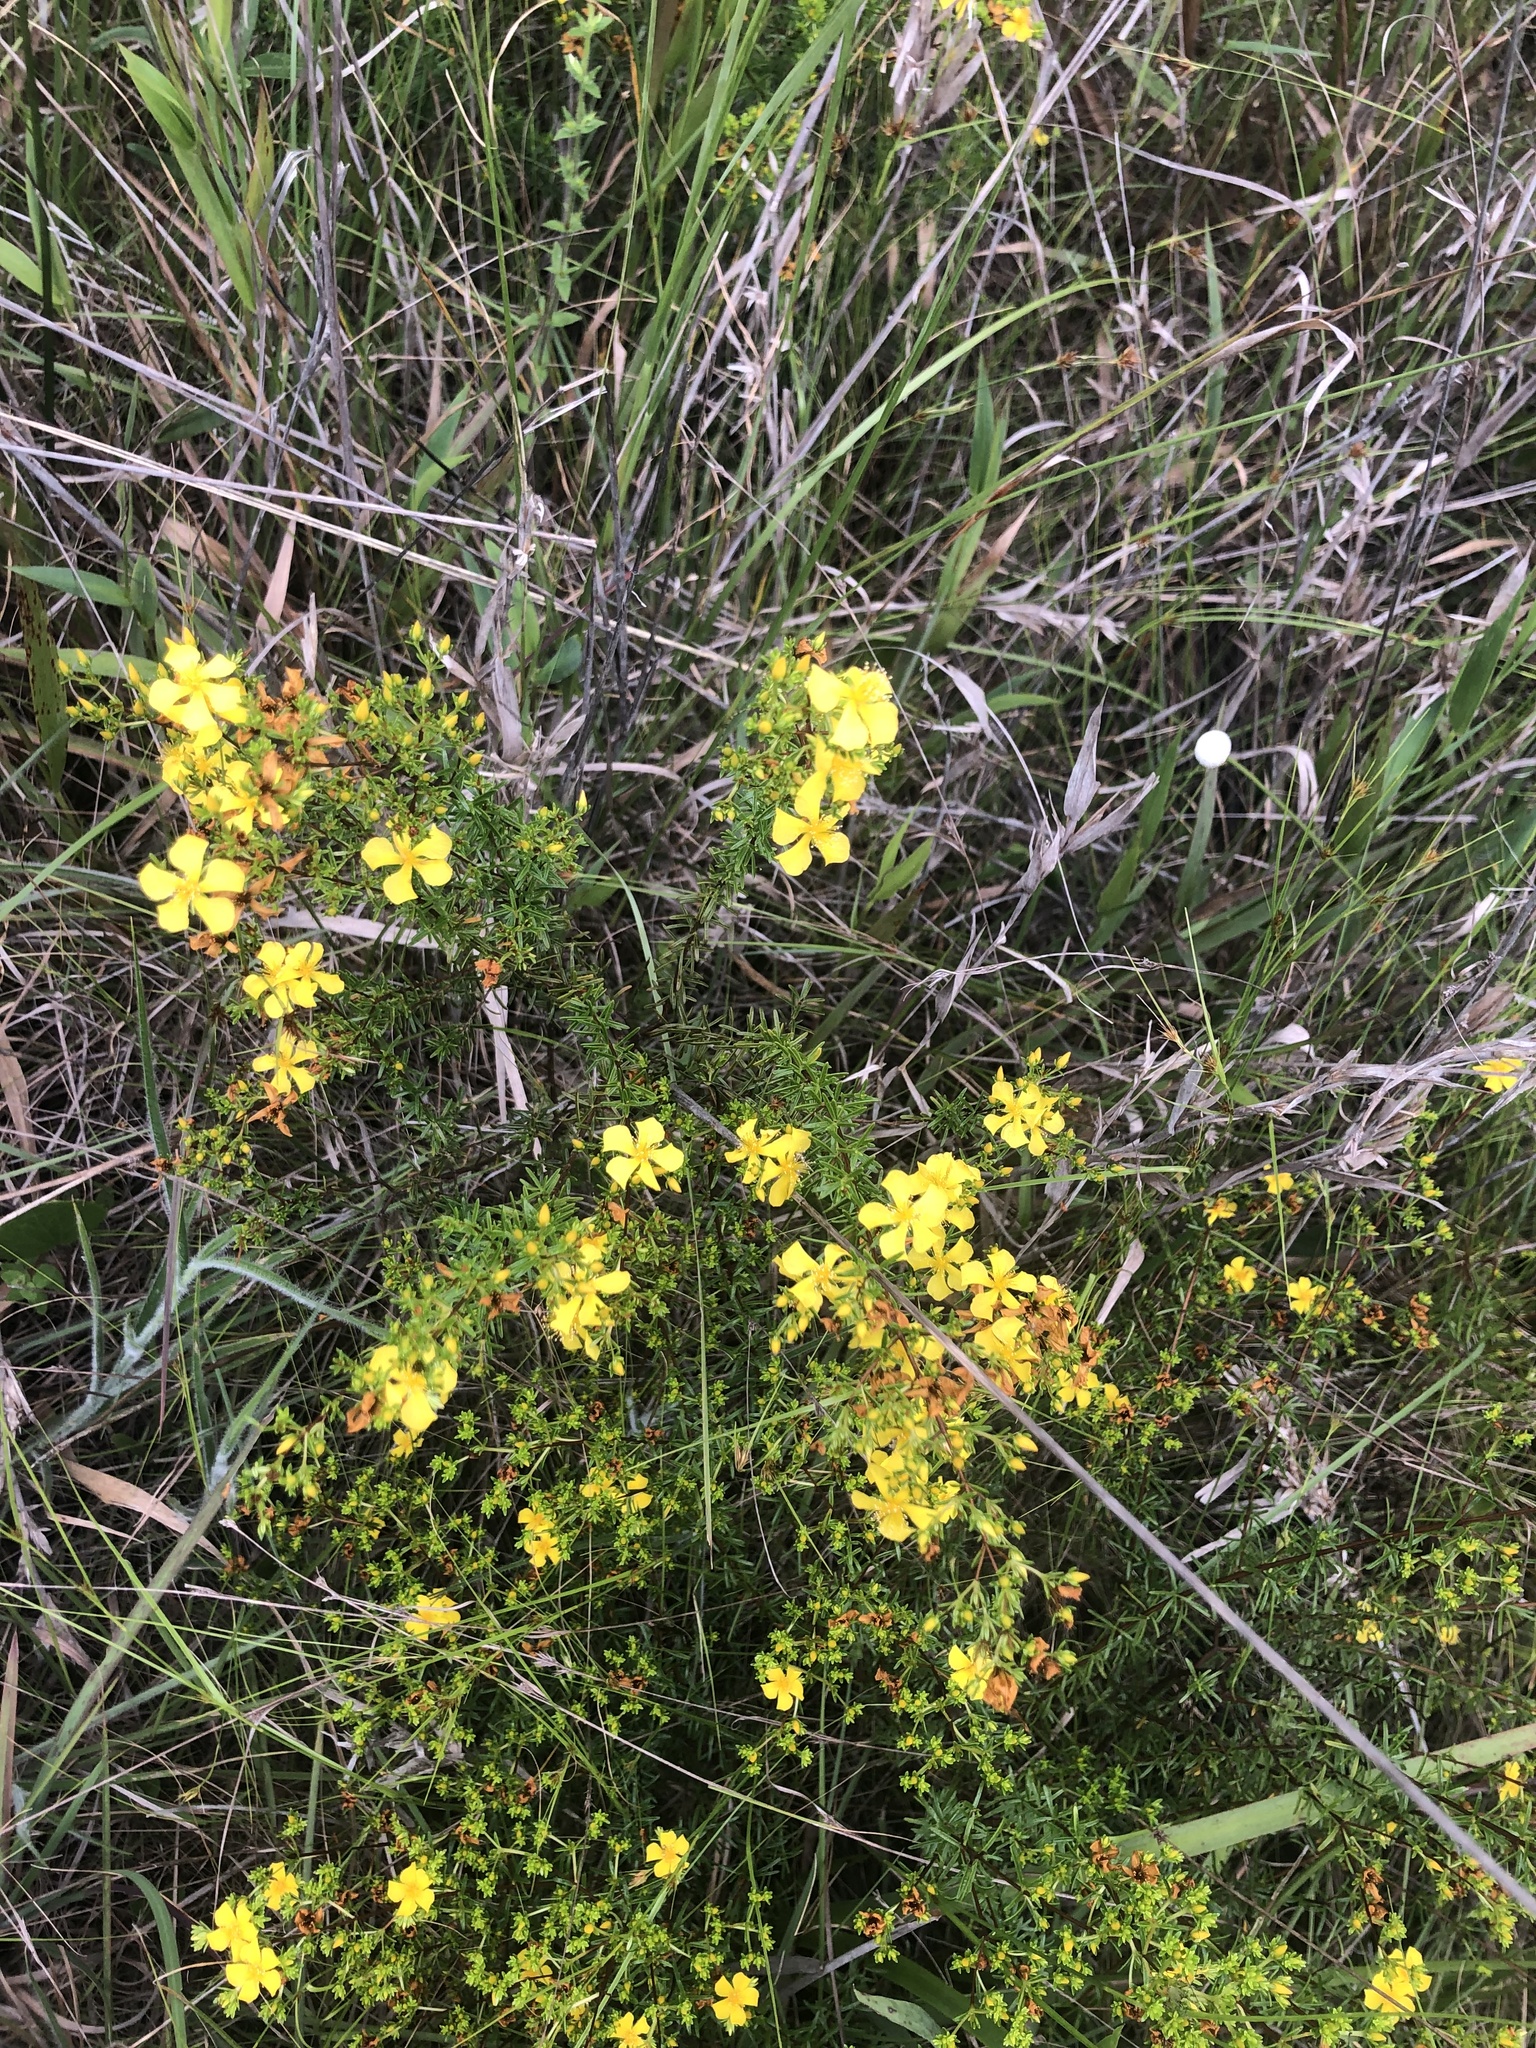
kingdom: Plantae
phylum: Tracheophyta
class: Magnoliopsida
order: Malpighiales
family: Hypericaceae
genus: Hypericum
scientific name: Hypericum brachyphyllum
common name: Coastal plain st. john's-wort
